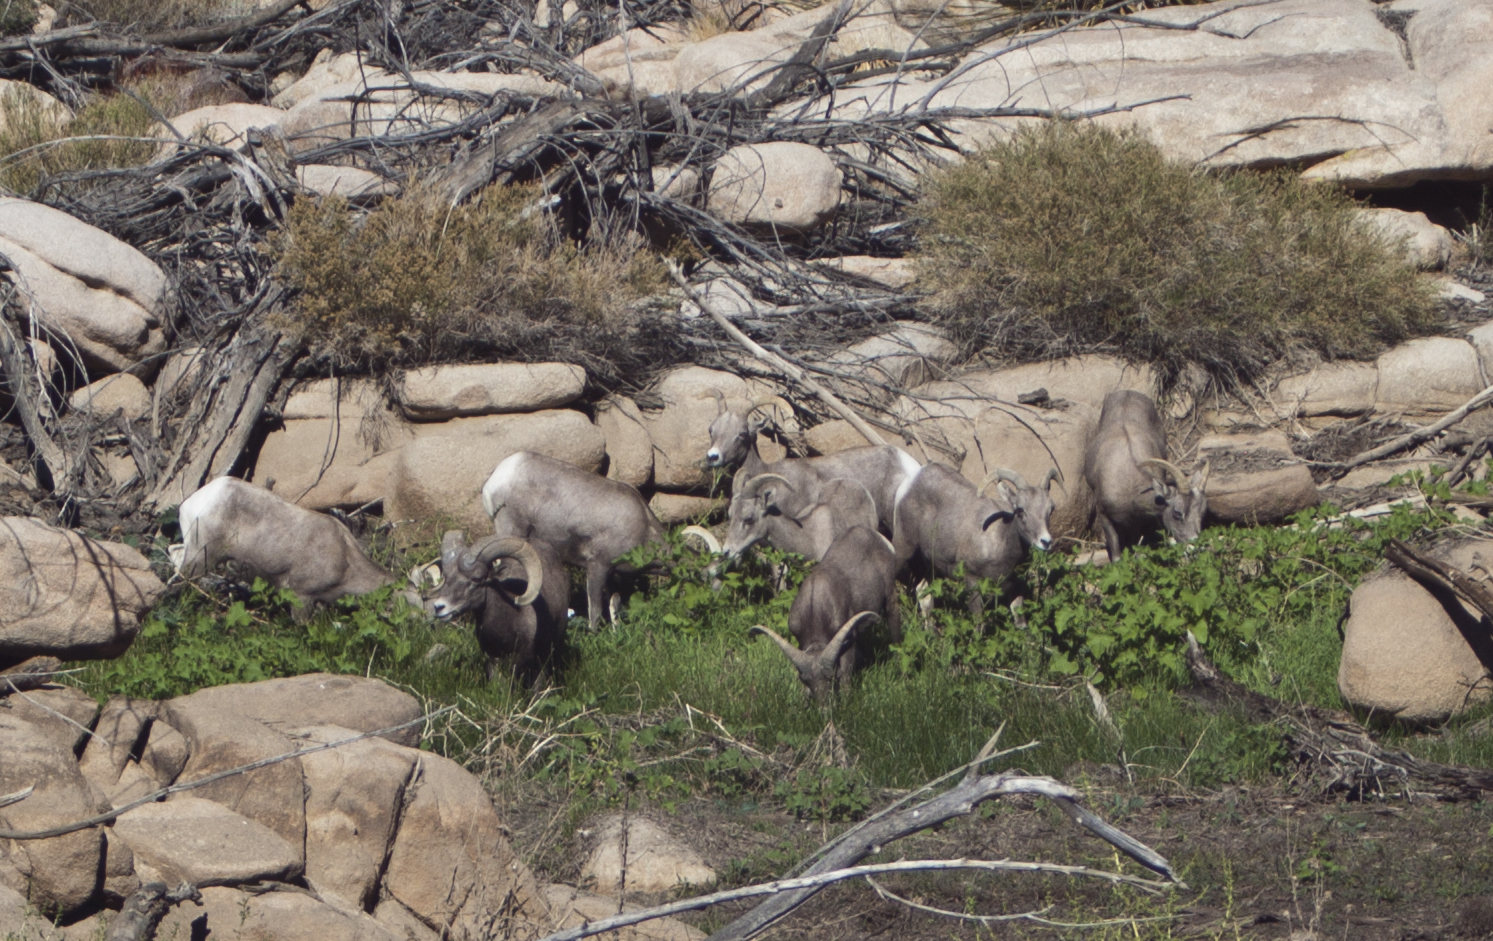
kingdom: Animalia
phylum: Chordata
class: Mammalia
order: Artiodactyla
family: Bovidae
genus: Ovis
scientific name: Ovis canadensis
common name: Bighorn sheep
